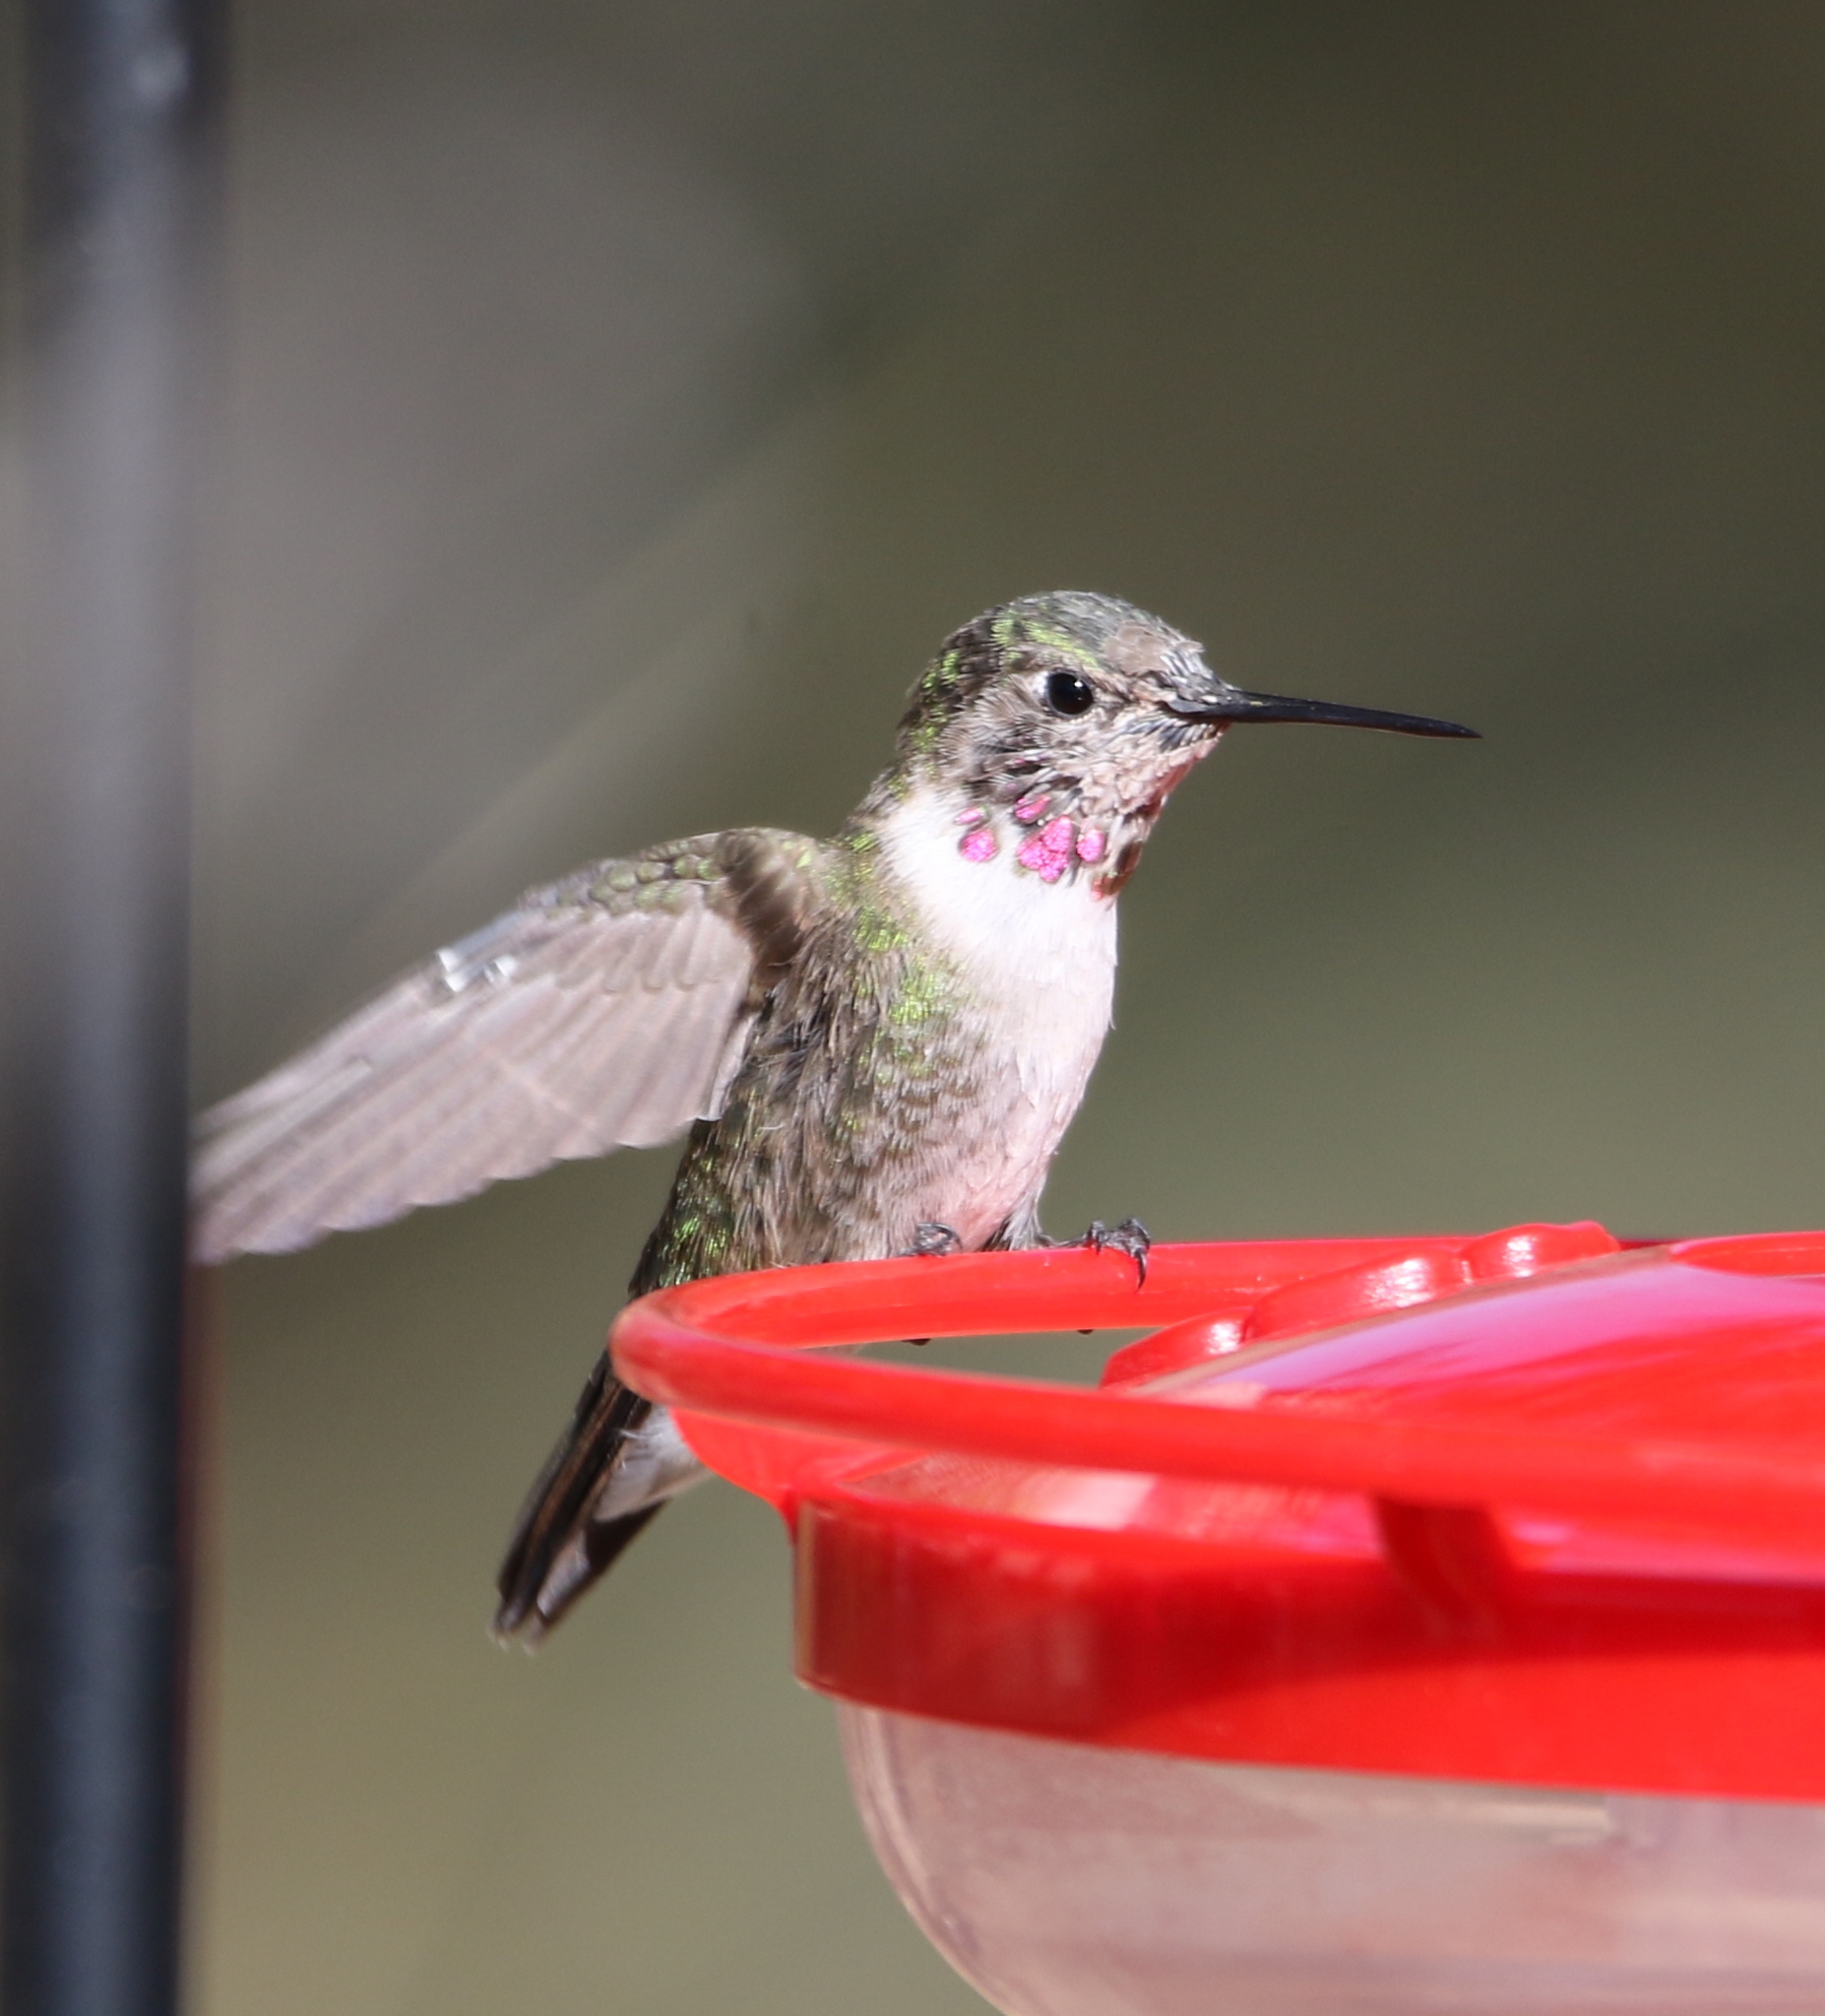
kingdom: Animalia
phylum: Chordata
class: Aves
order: Apodiformes
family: Trochilidae
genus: Selasphorus
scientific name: Selasphorus platycercus
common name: Broad-tailed hummingbird
